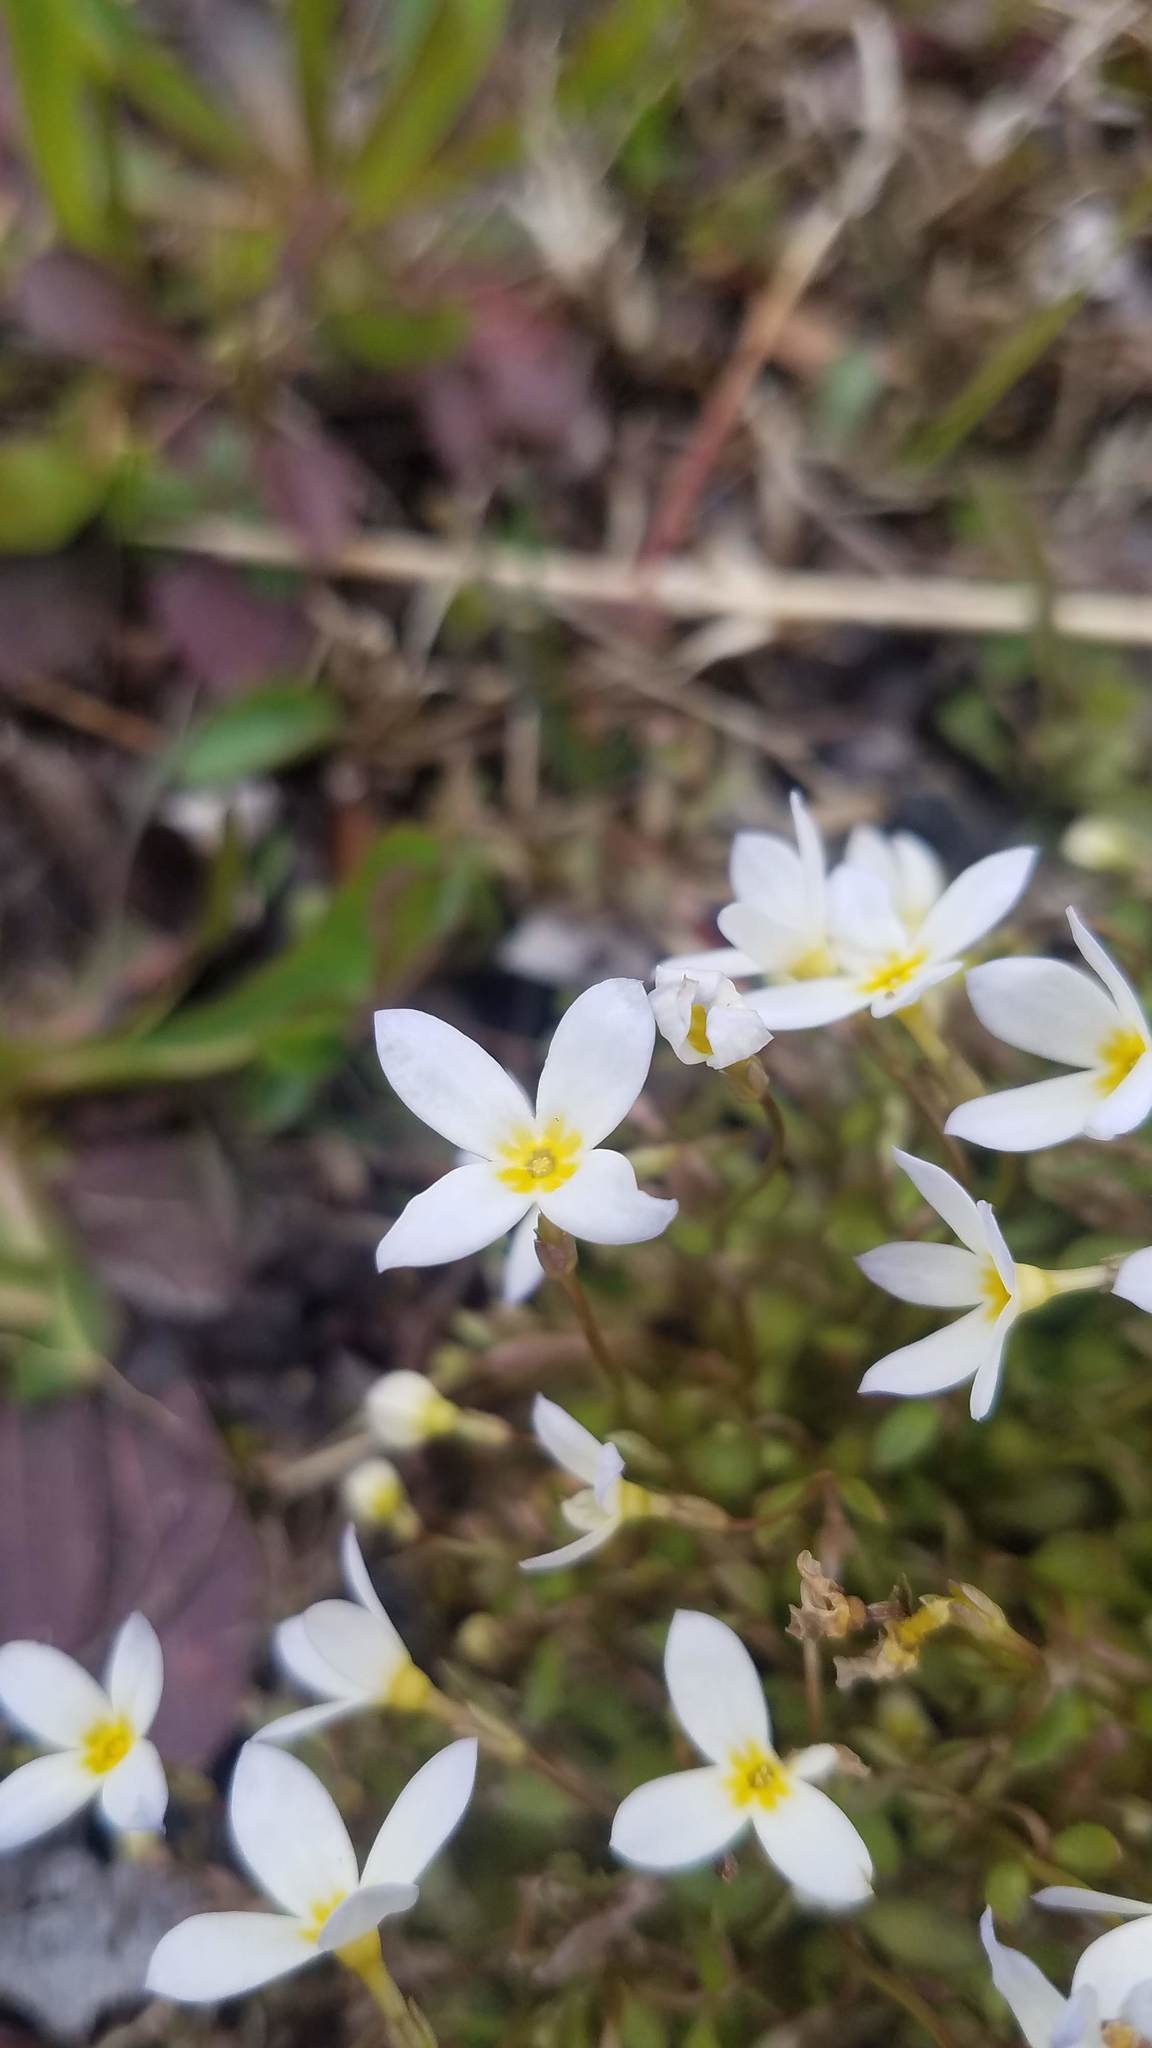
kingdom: Plantae
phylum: Tracheophyta
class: Magnoliopsida
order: Gentianales
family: Rubiaceae
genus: Houstonia
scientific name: Houstonia caerulea
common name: Bluets
